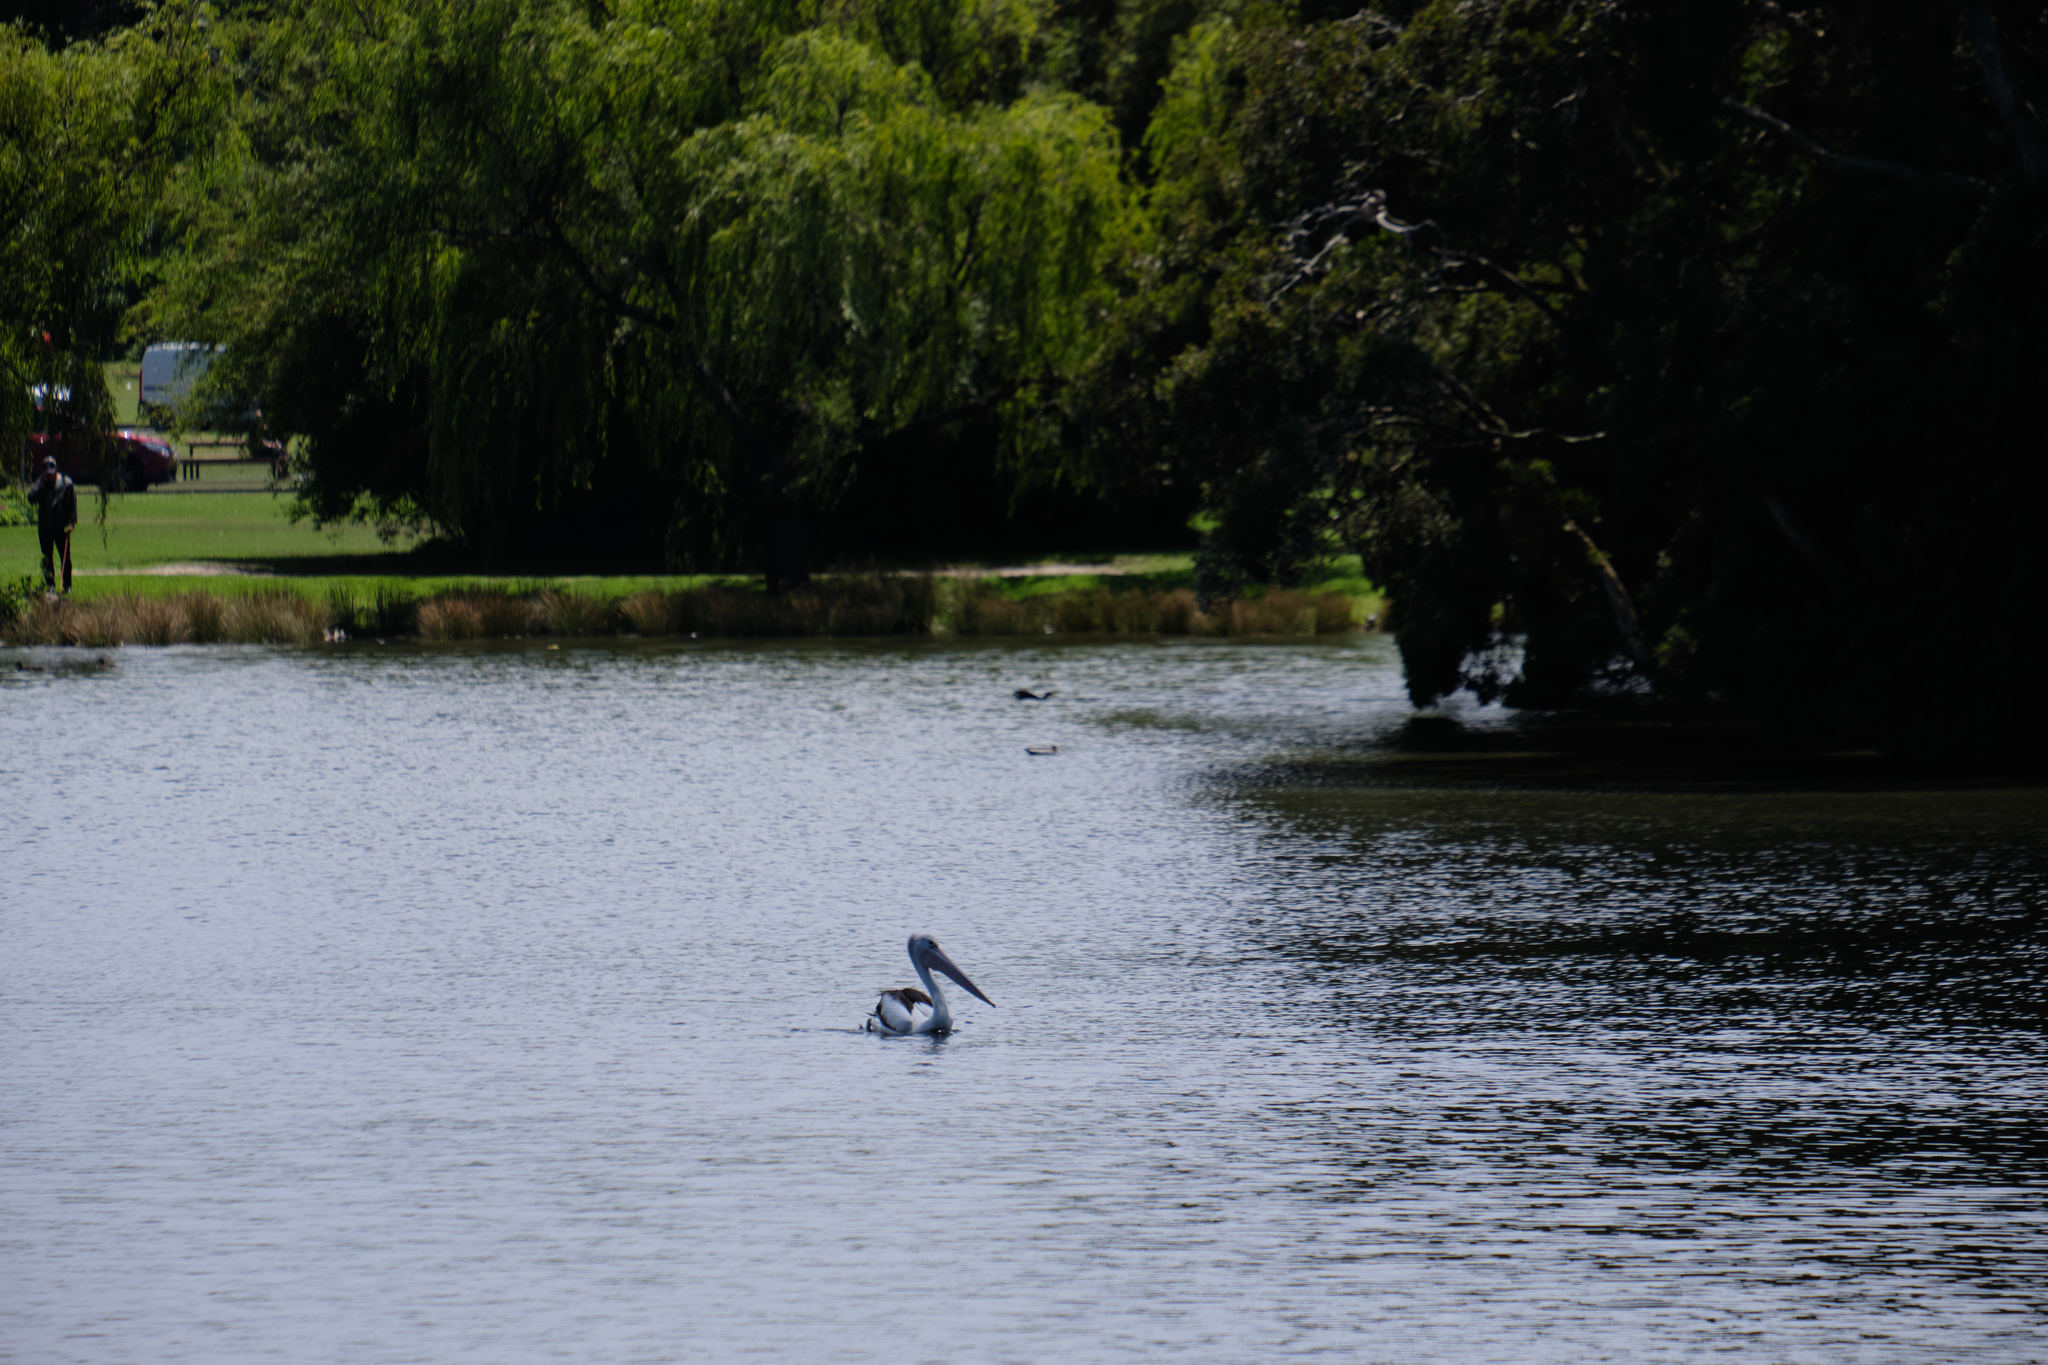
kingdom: Animalia
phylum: Chordata
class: Aves
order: Pelecaniformes
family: Pelecanidae
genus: Pelecanus
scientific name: Pelecanus conspicillatus
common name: Australian pelican
